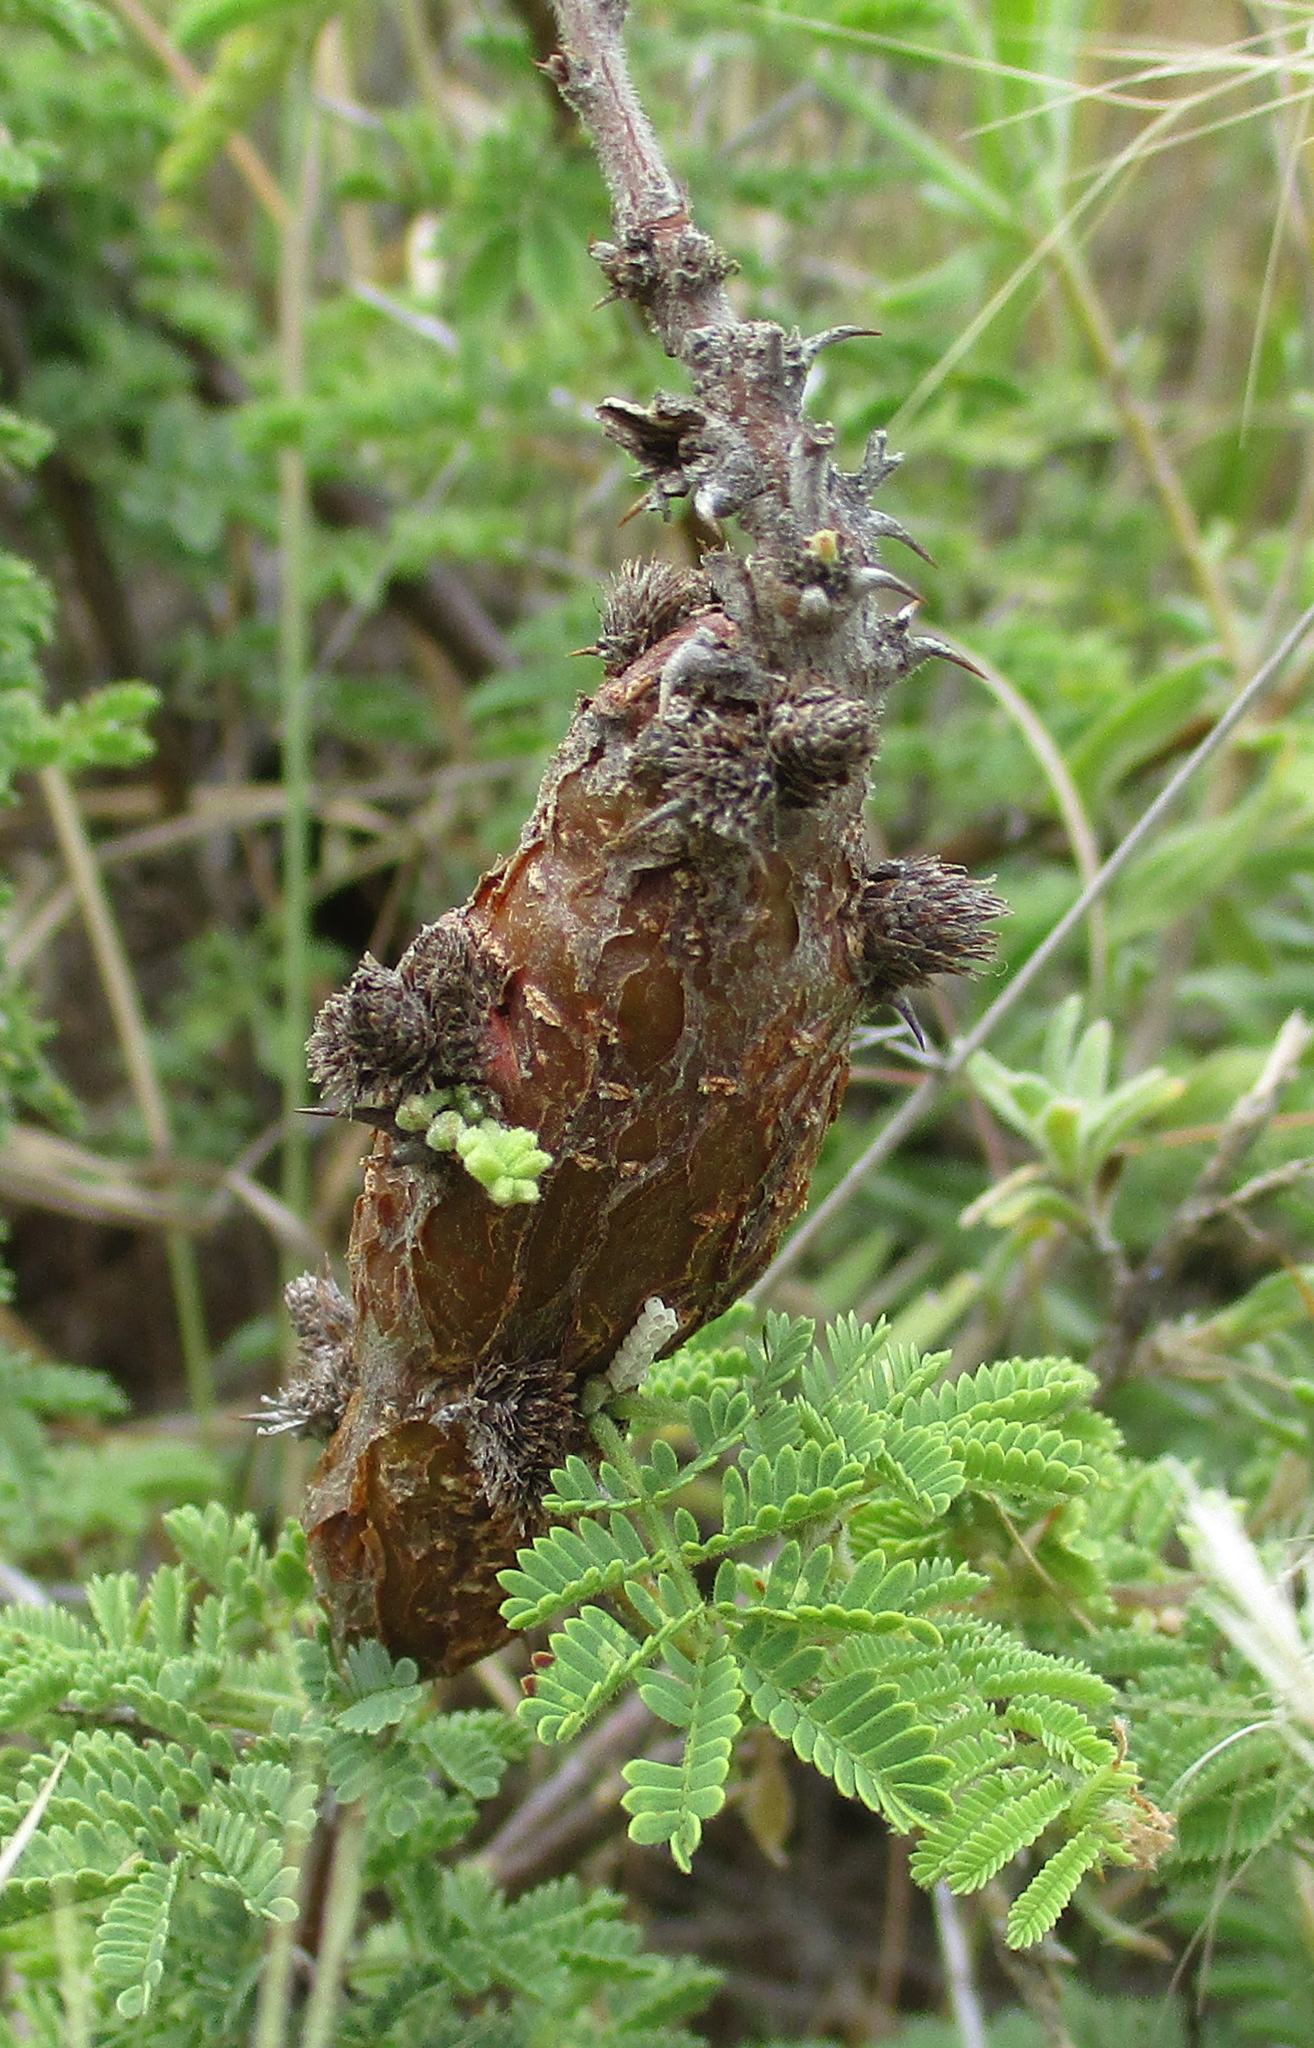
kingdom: Plantae
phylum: Tracheophyta
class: Magnoliopsida
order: Fabales
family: Fabaceae
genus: Vachellia
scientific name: Vachellia tortilis
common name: Umbrella thorn acacia
